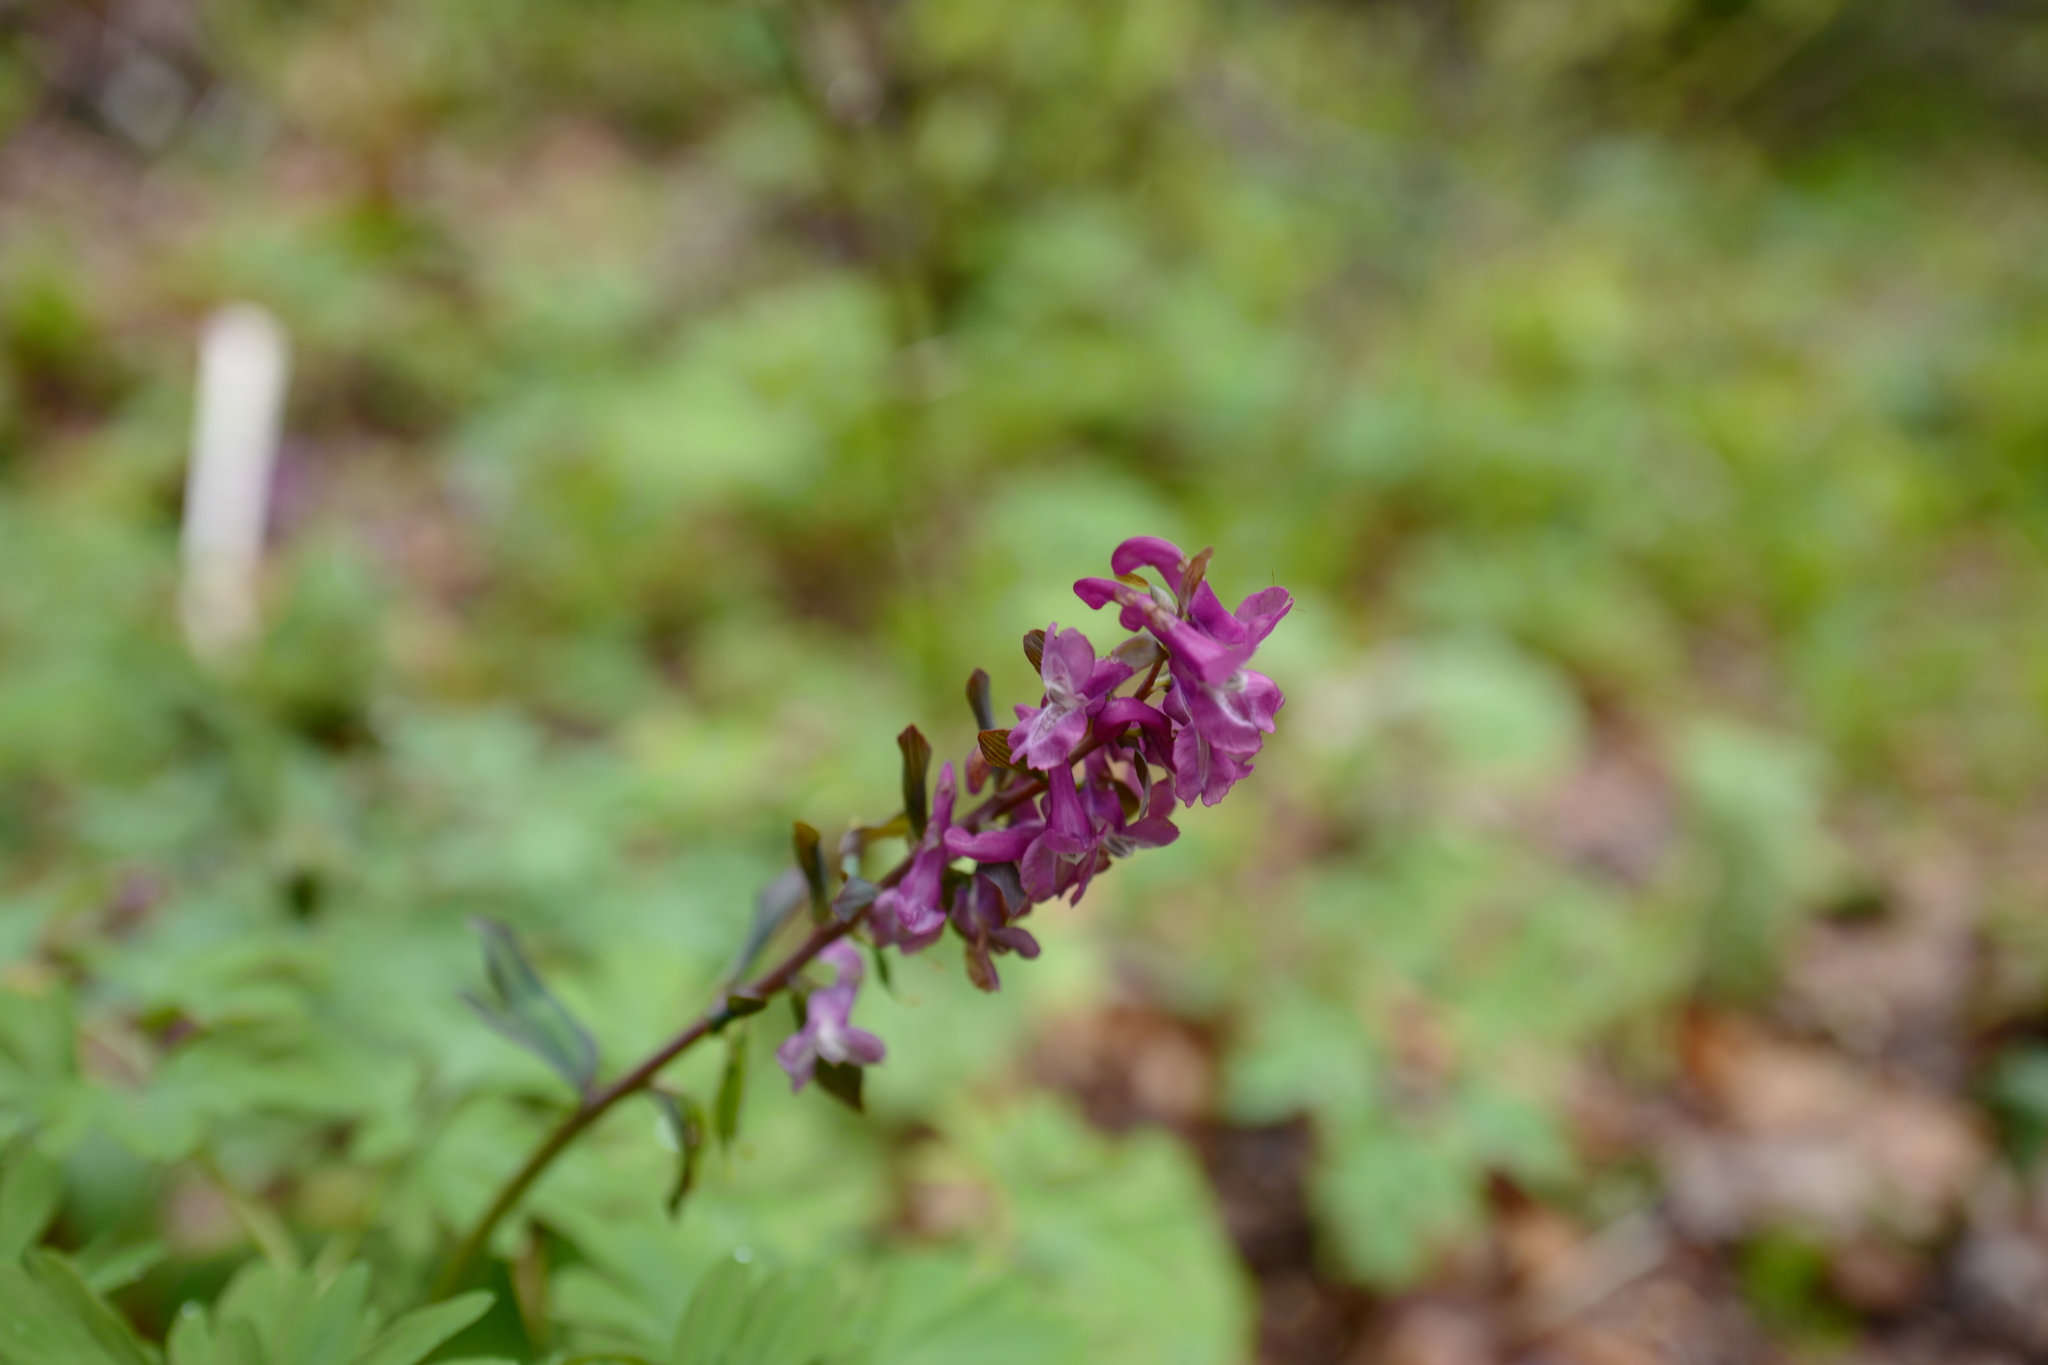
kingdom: Plantae
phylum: Tracheophyta
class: Magnoliopsida
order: Ranunculales
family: Papaveraceae
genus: Corydalis
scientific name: Corydalis cava
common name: Hollowroot
